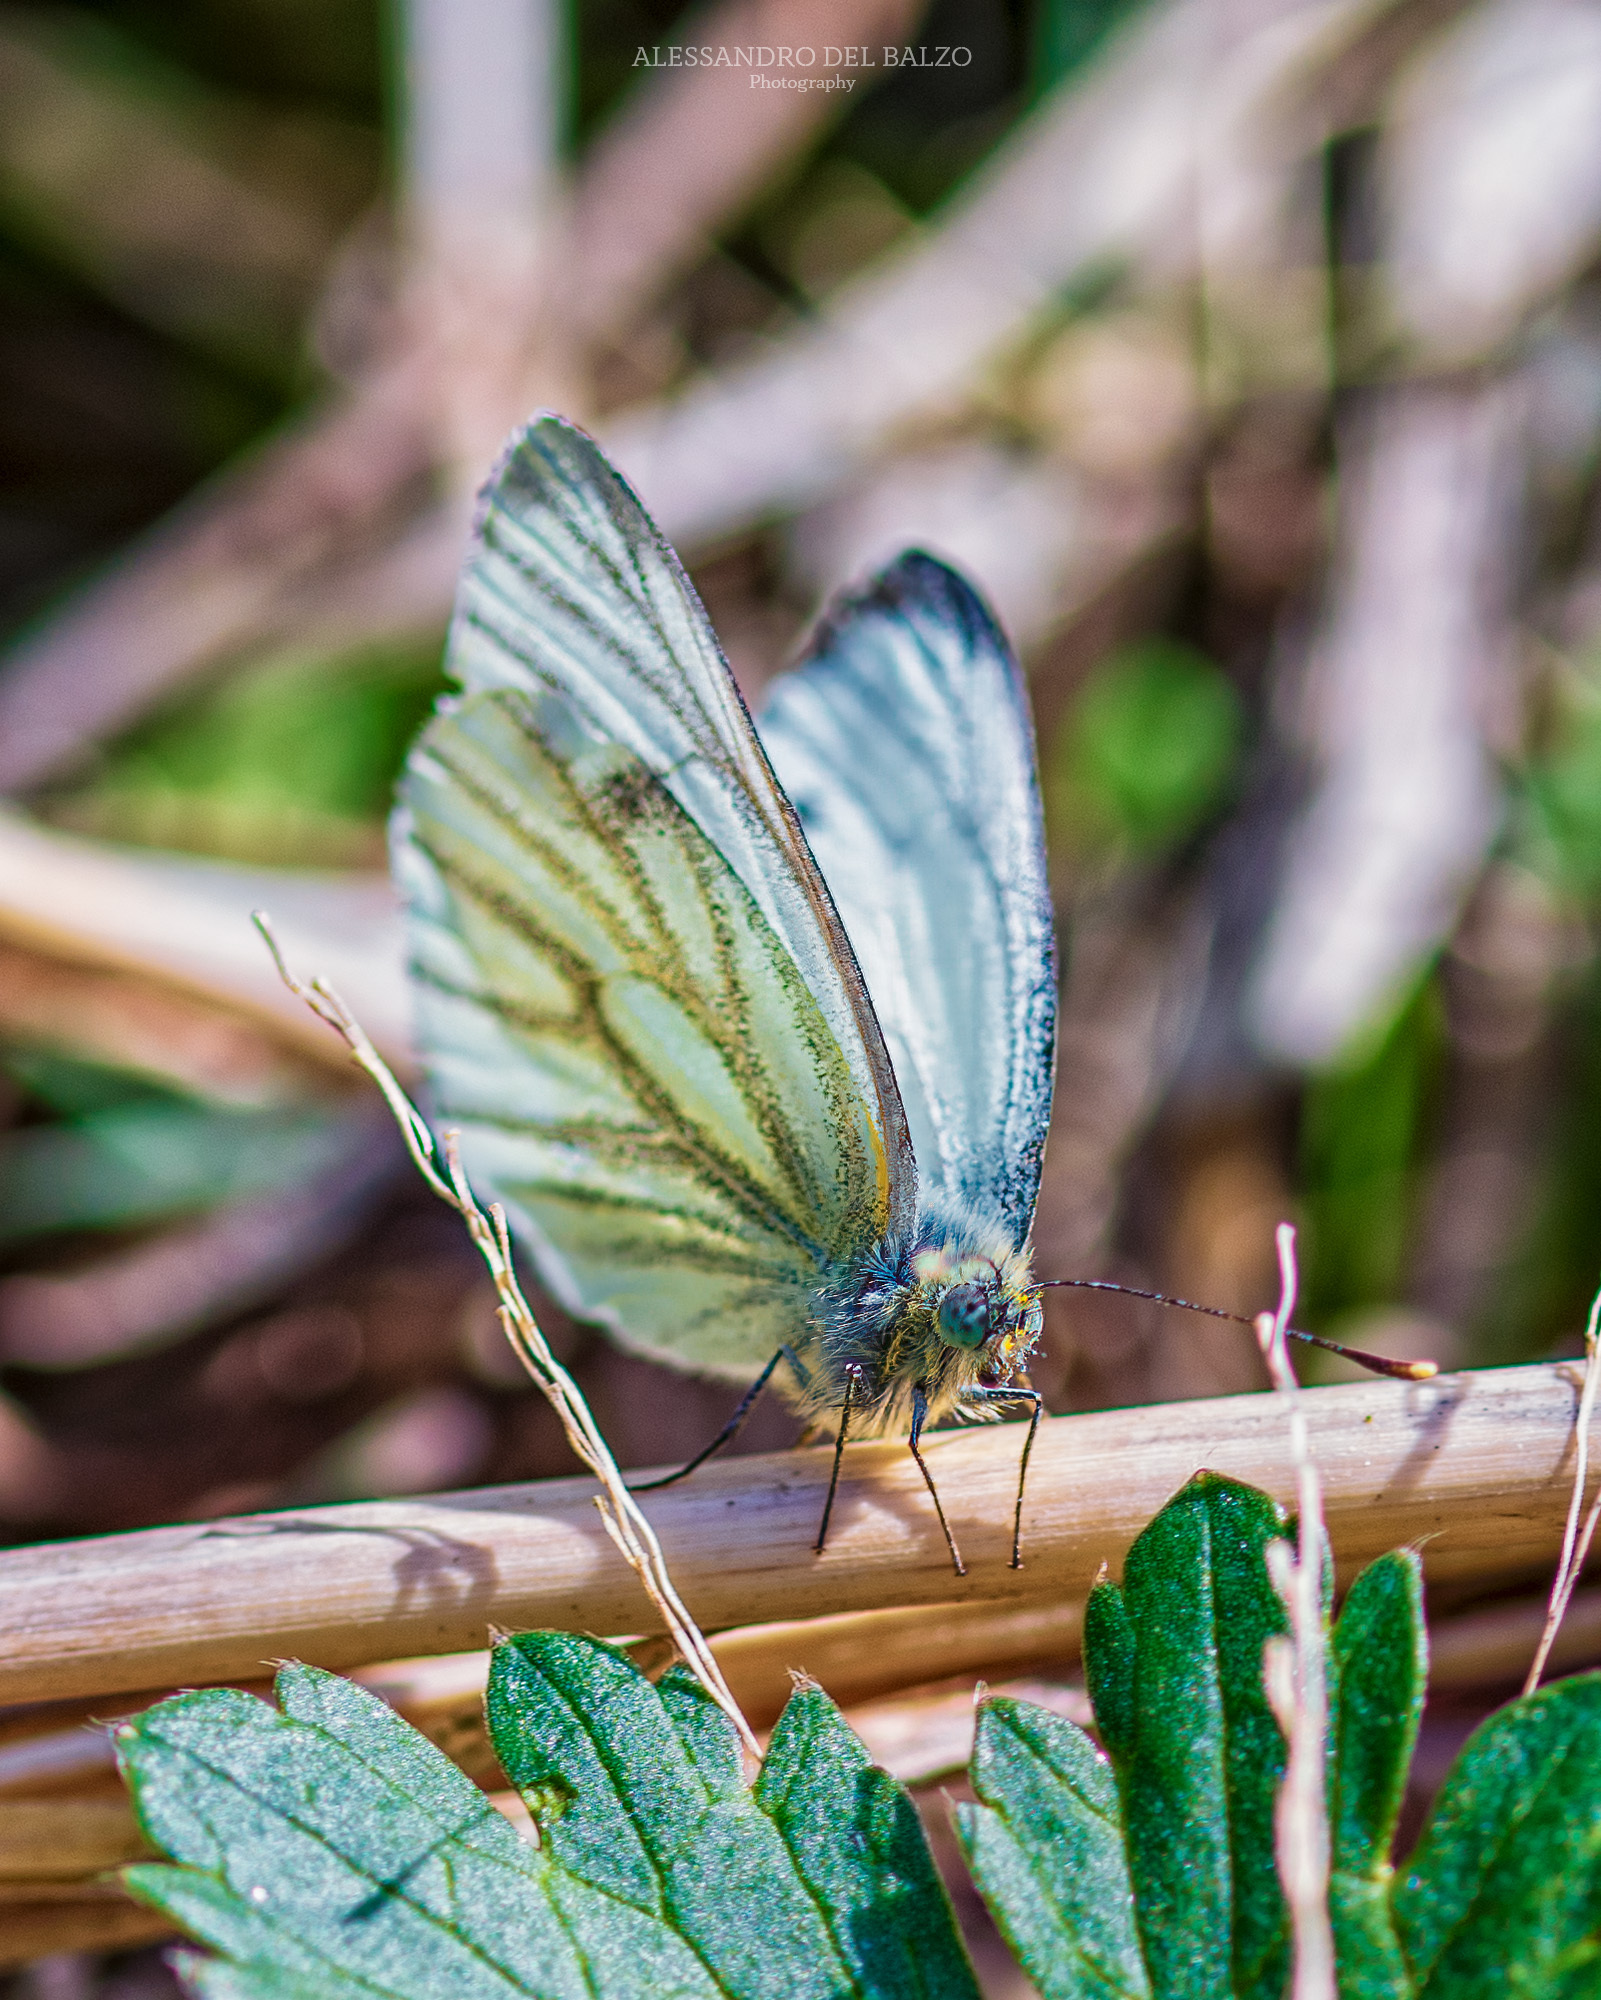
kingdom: Animalia
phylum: Arthropoda
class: Insecta
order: Lepidoptera
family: Pieridae
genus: Pieris
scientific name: Pieris napi
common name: Green-veined white
